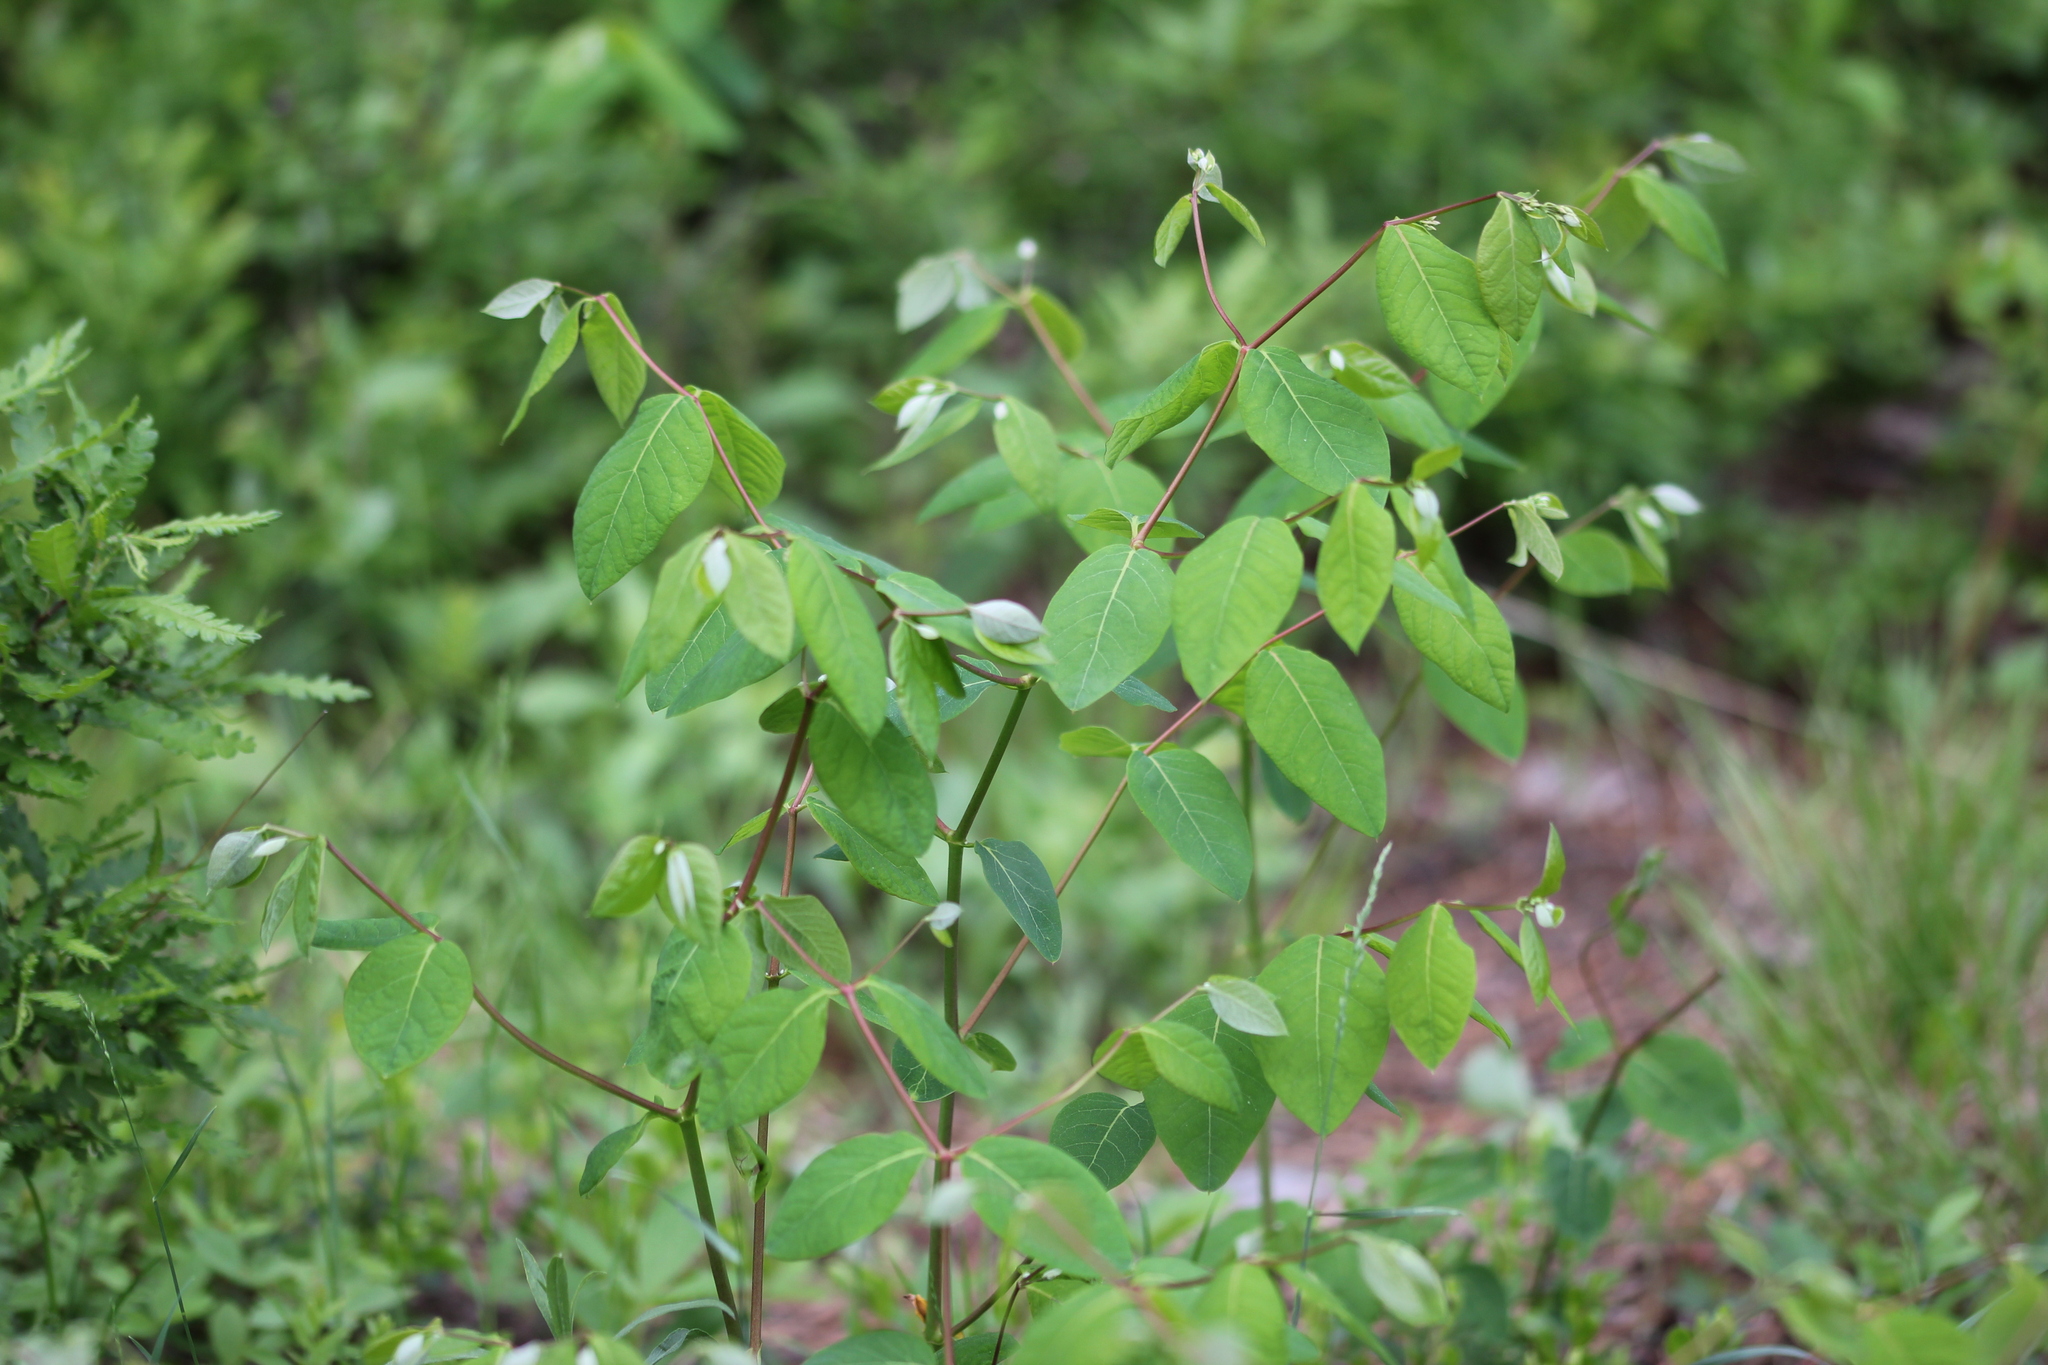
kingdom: Plantae
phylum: Tracheophyta
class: Magnoliopsida
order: Gentianales
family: Apocynaceae
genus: Apocynum
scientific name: Apocynum androsaemifolium
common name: Spreading dogbane
